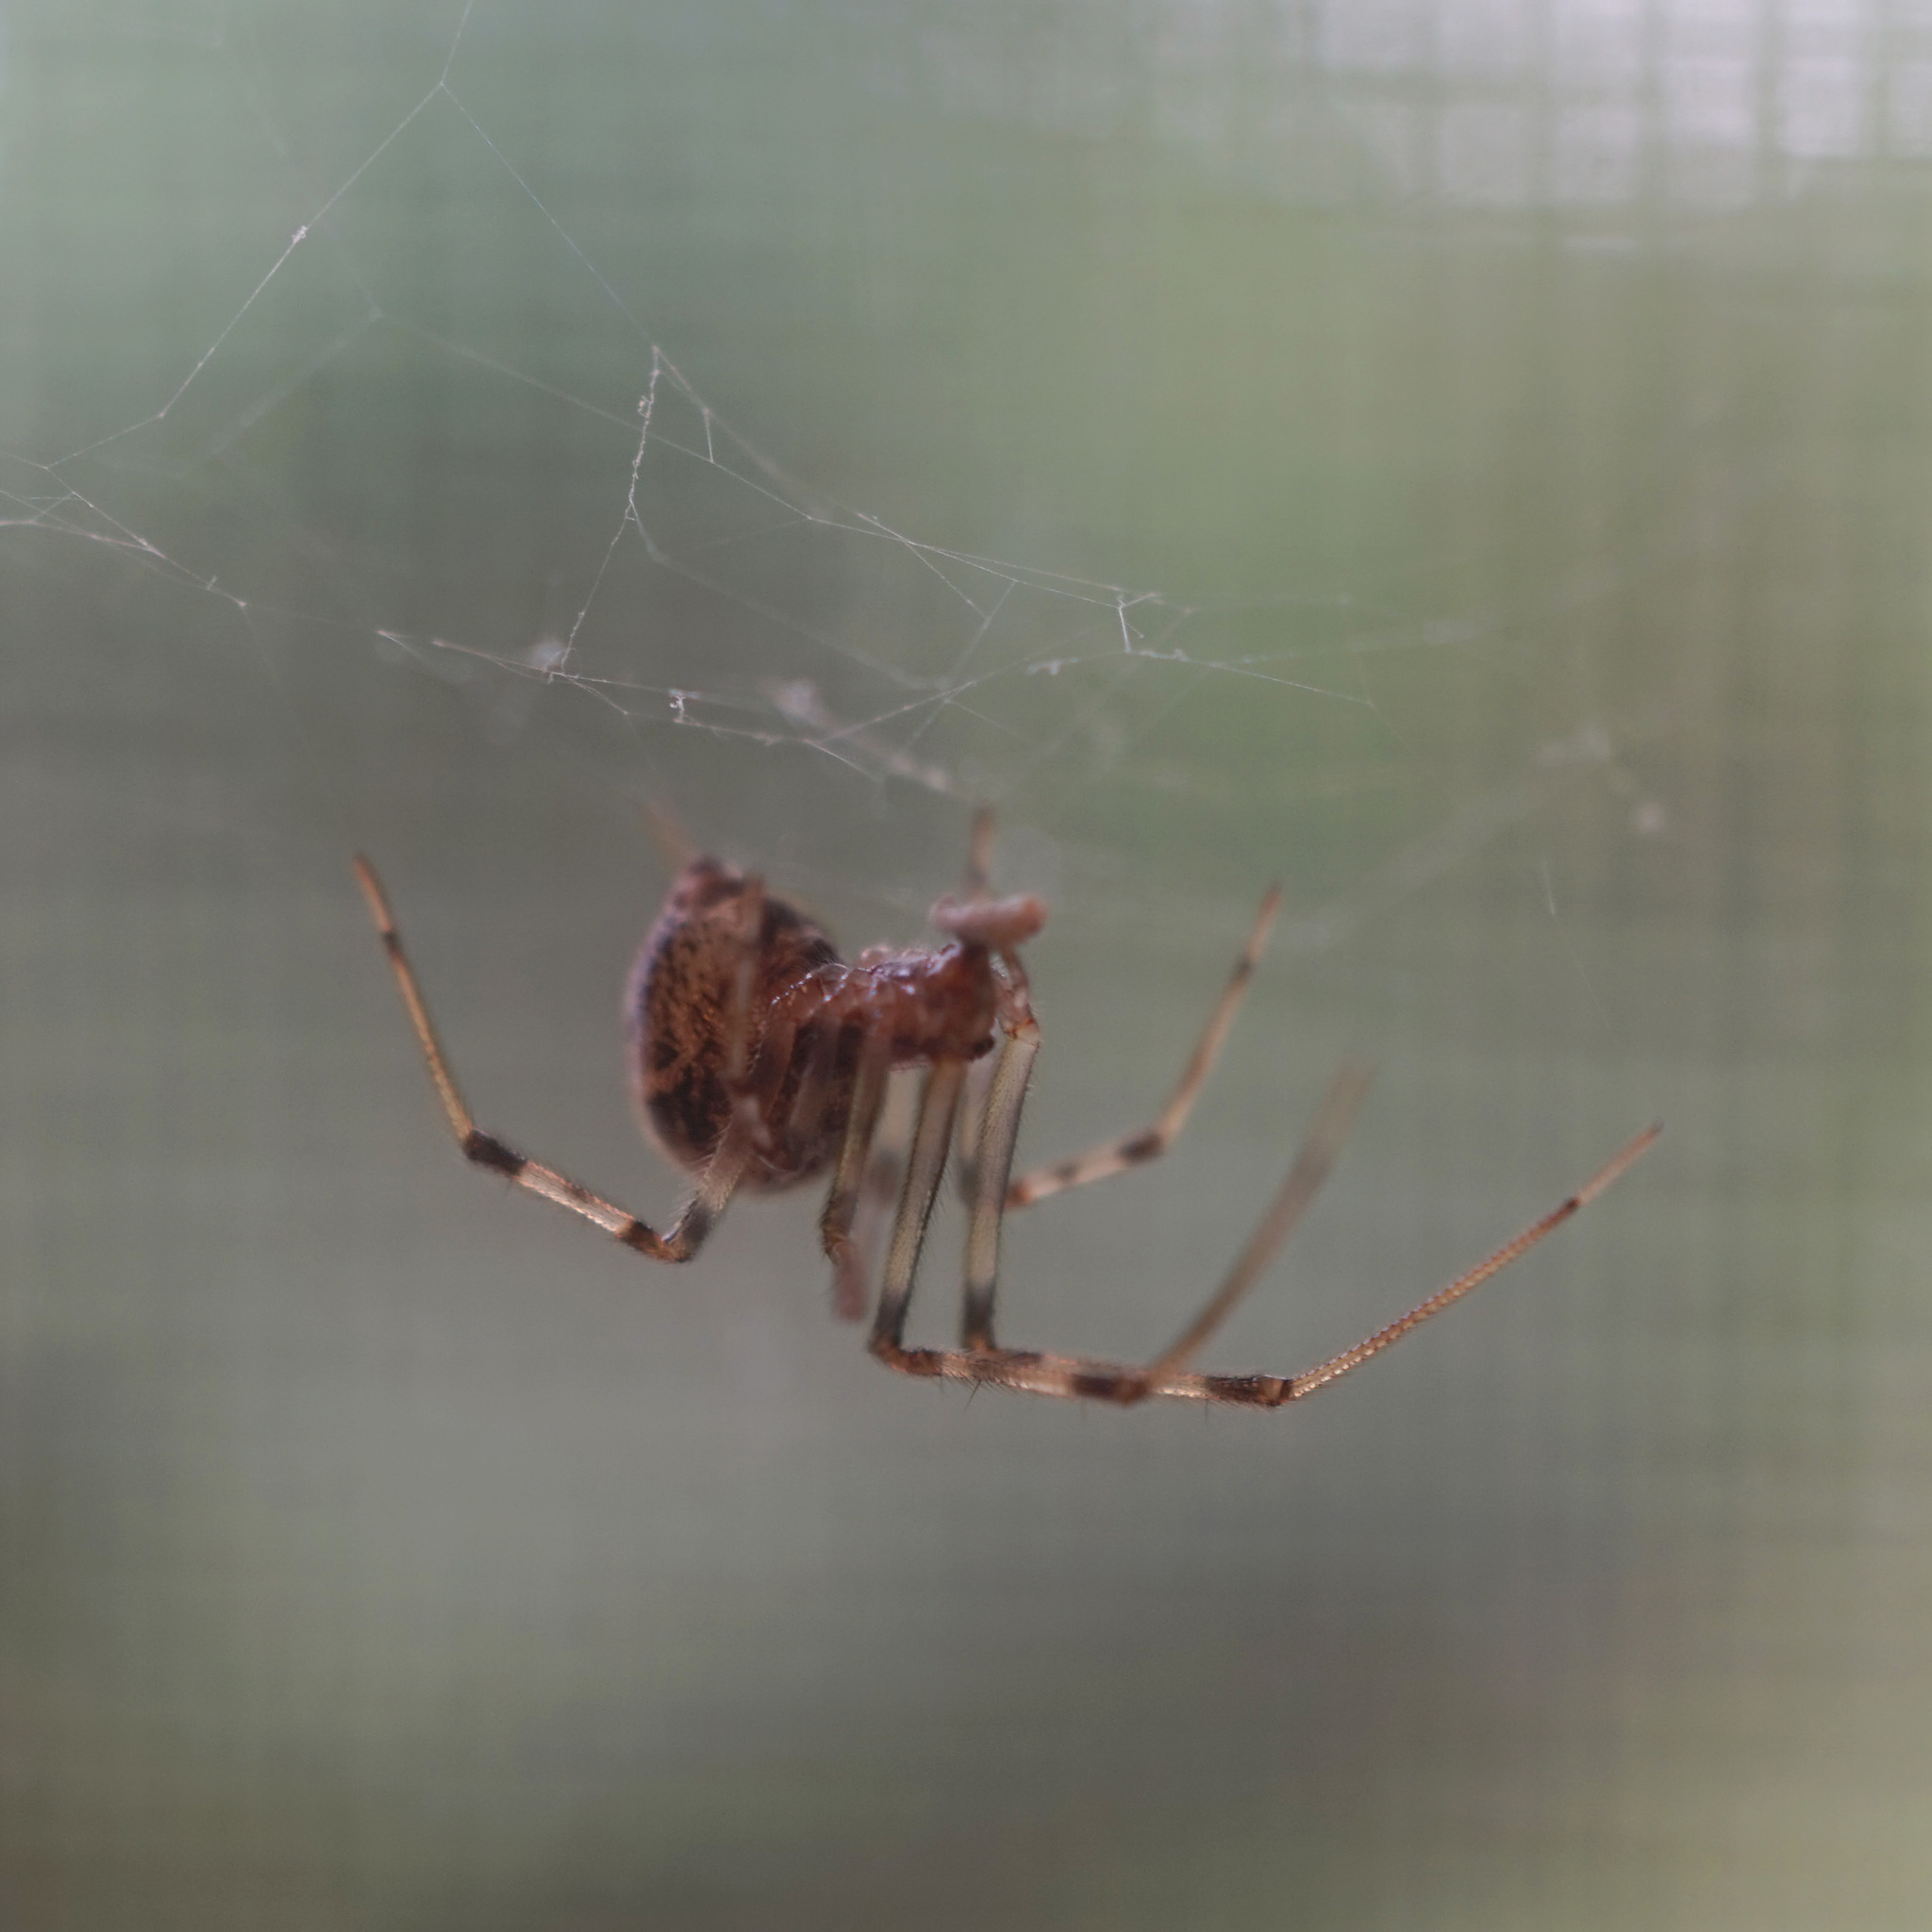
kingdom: Animalia
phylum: Arthropoda
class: Arachnida
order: Araneae
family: Theridiidae
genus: Parasteatoda
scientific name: Parasteatoda tepidariorum
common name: Common house spider
